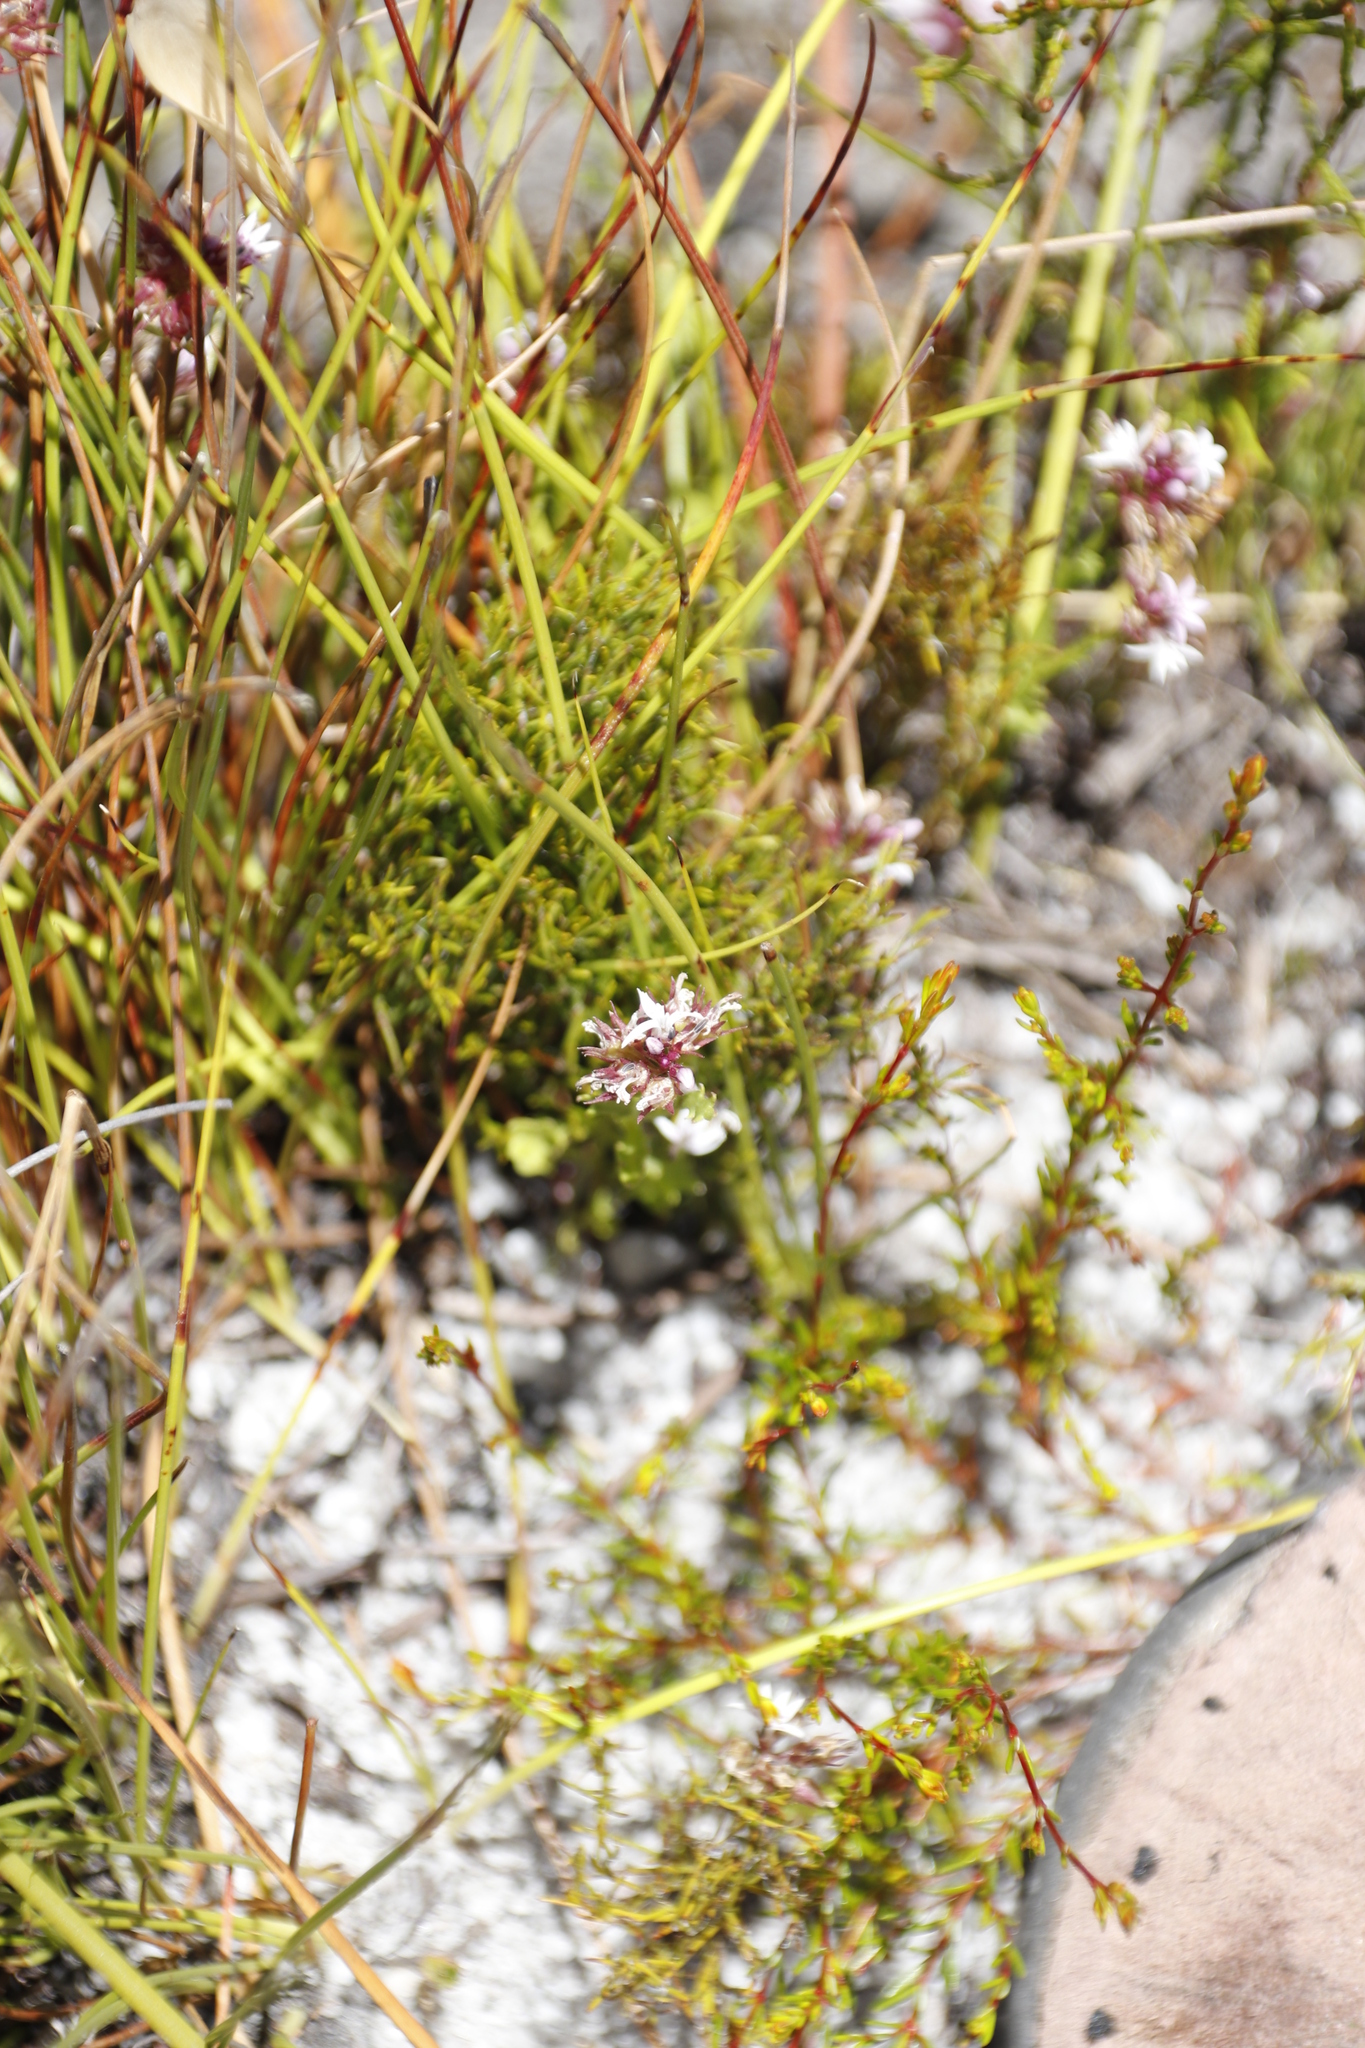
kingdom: Plantae
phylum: Tracheophyta
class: Magnoliopsida
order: Asterales
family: Campanulaceae
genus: Lobelia
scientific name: Lobelia jasionoides
